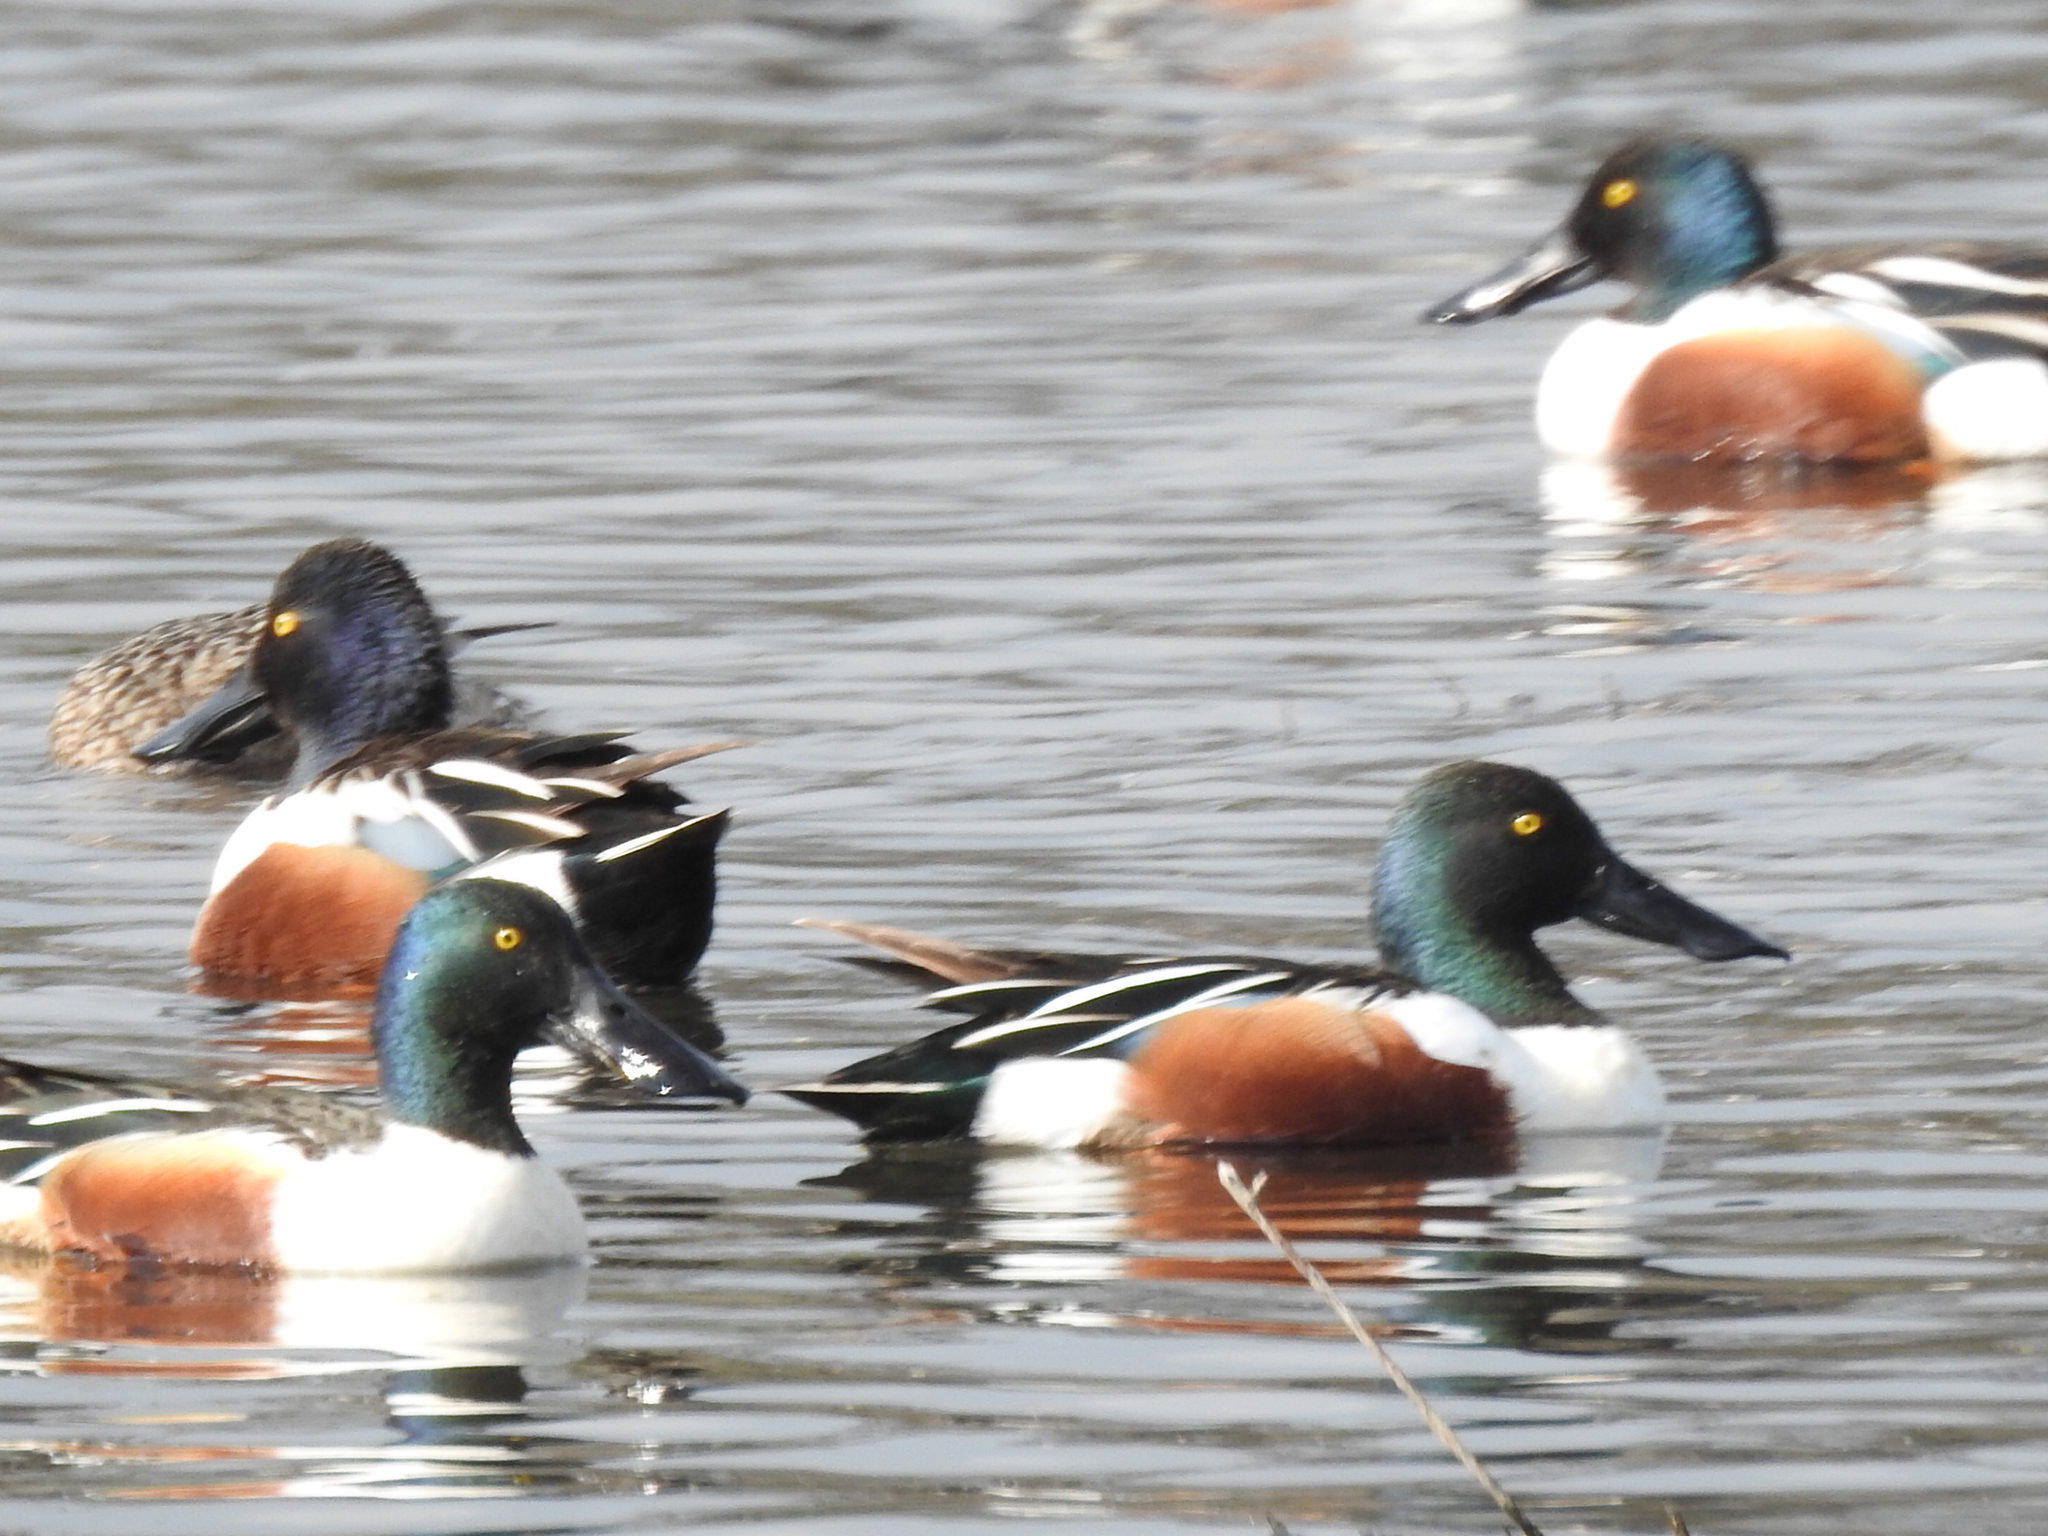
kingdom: Animalia
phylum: Chordata
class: Aves
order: Anseriformes
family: Anatidae
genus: Spatula
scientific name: Spatula clypeata
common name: Northern shoveler
